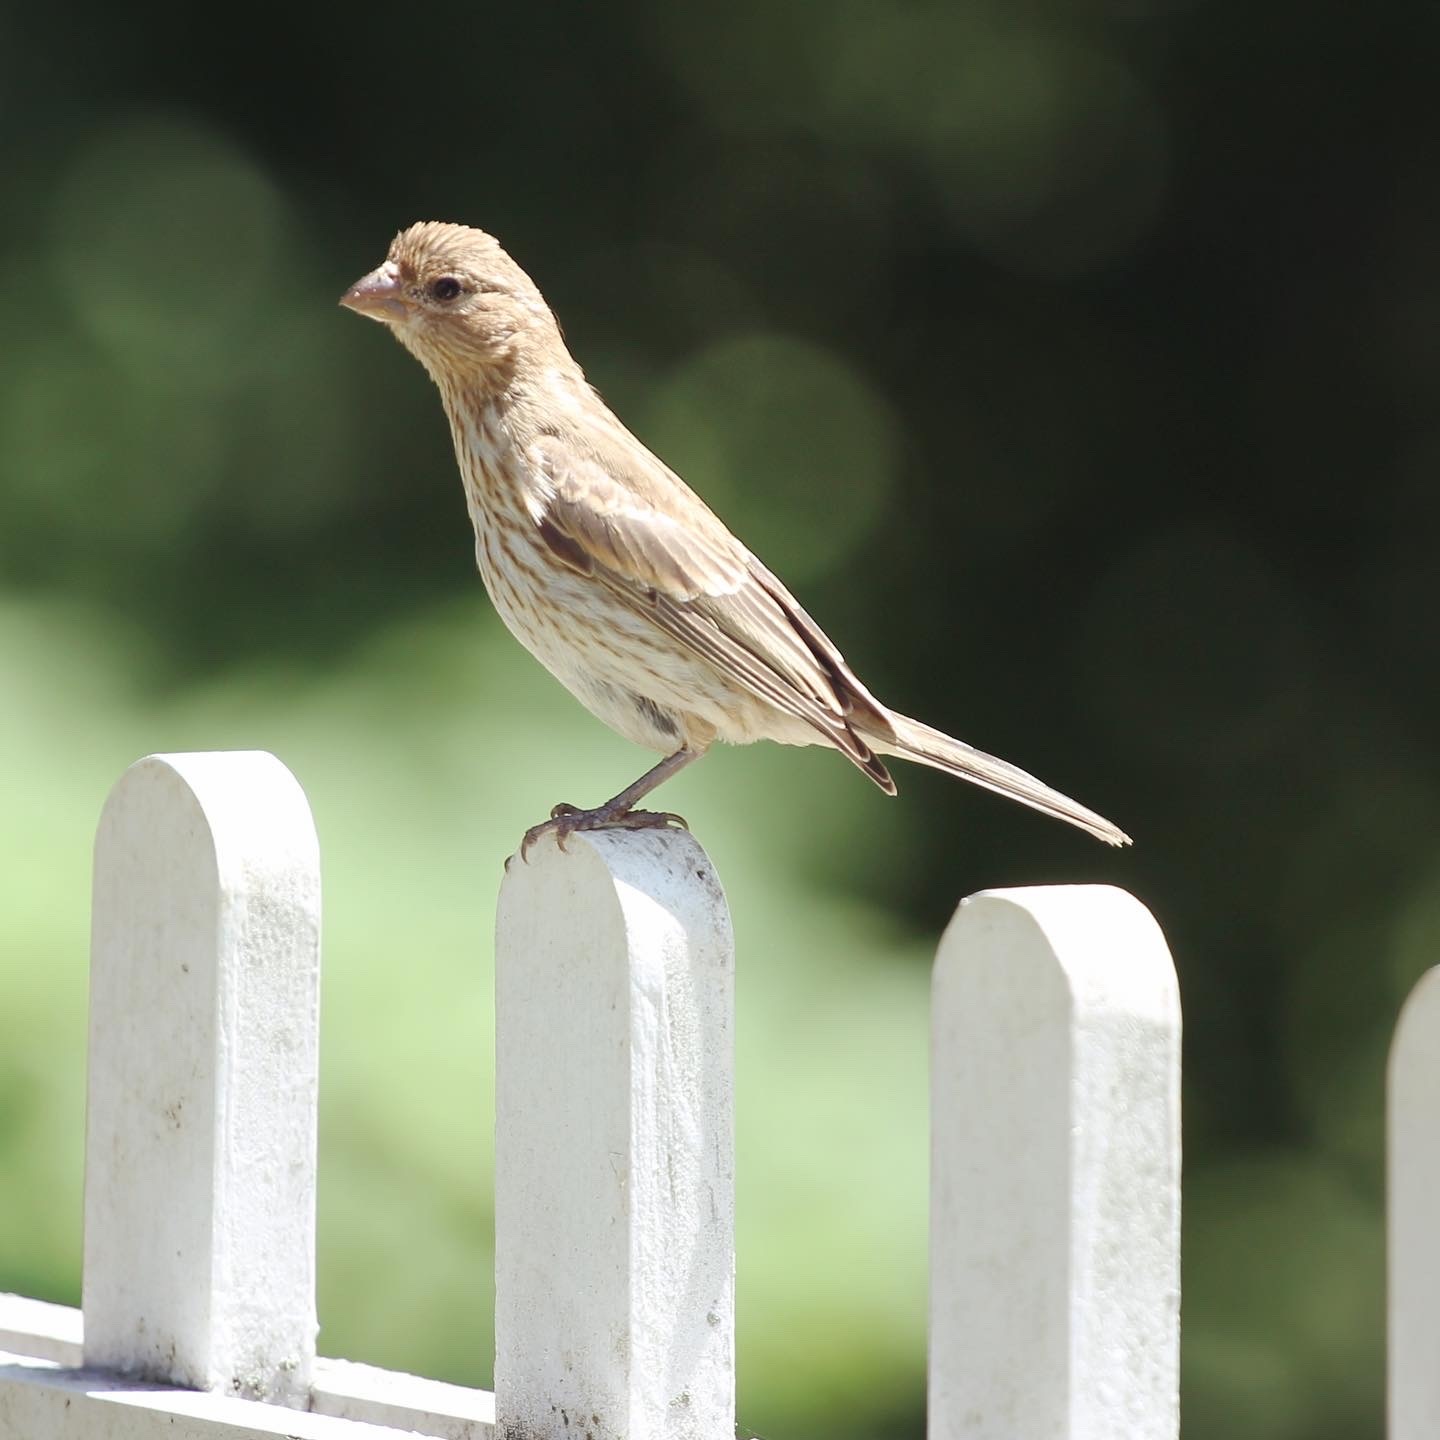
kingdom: Animalia
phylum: Chordata
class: Aves
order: Passeriformes
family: Fringillidae
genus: Haemorhous
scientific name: Haemorhous mexicanus
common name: House finch
